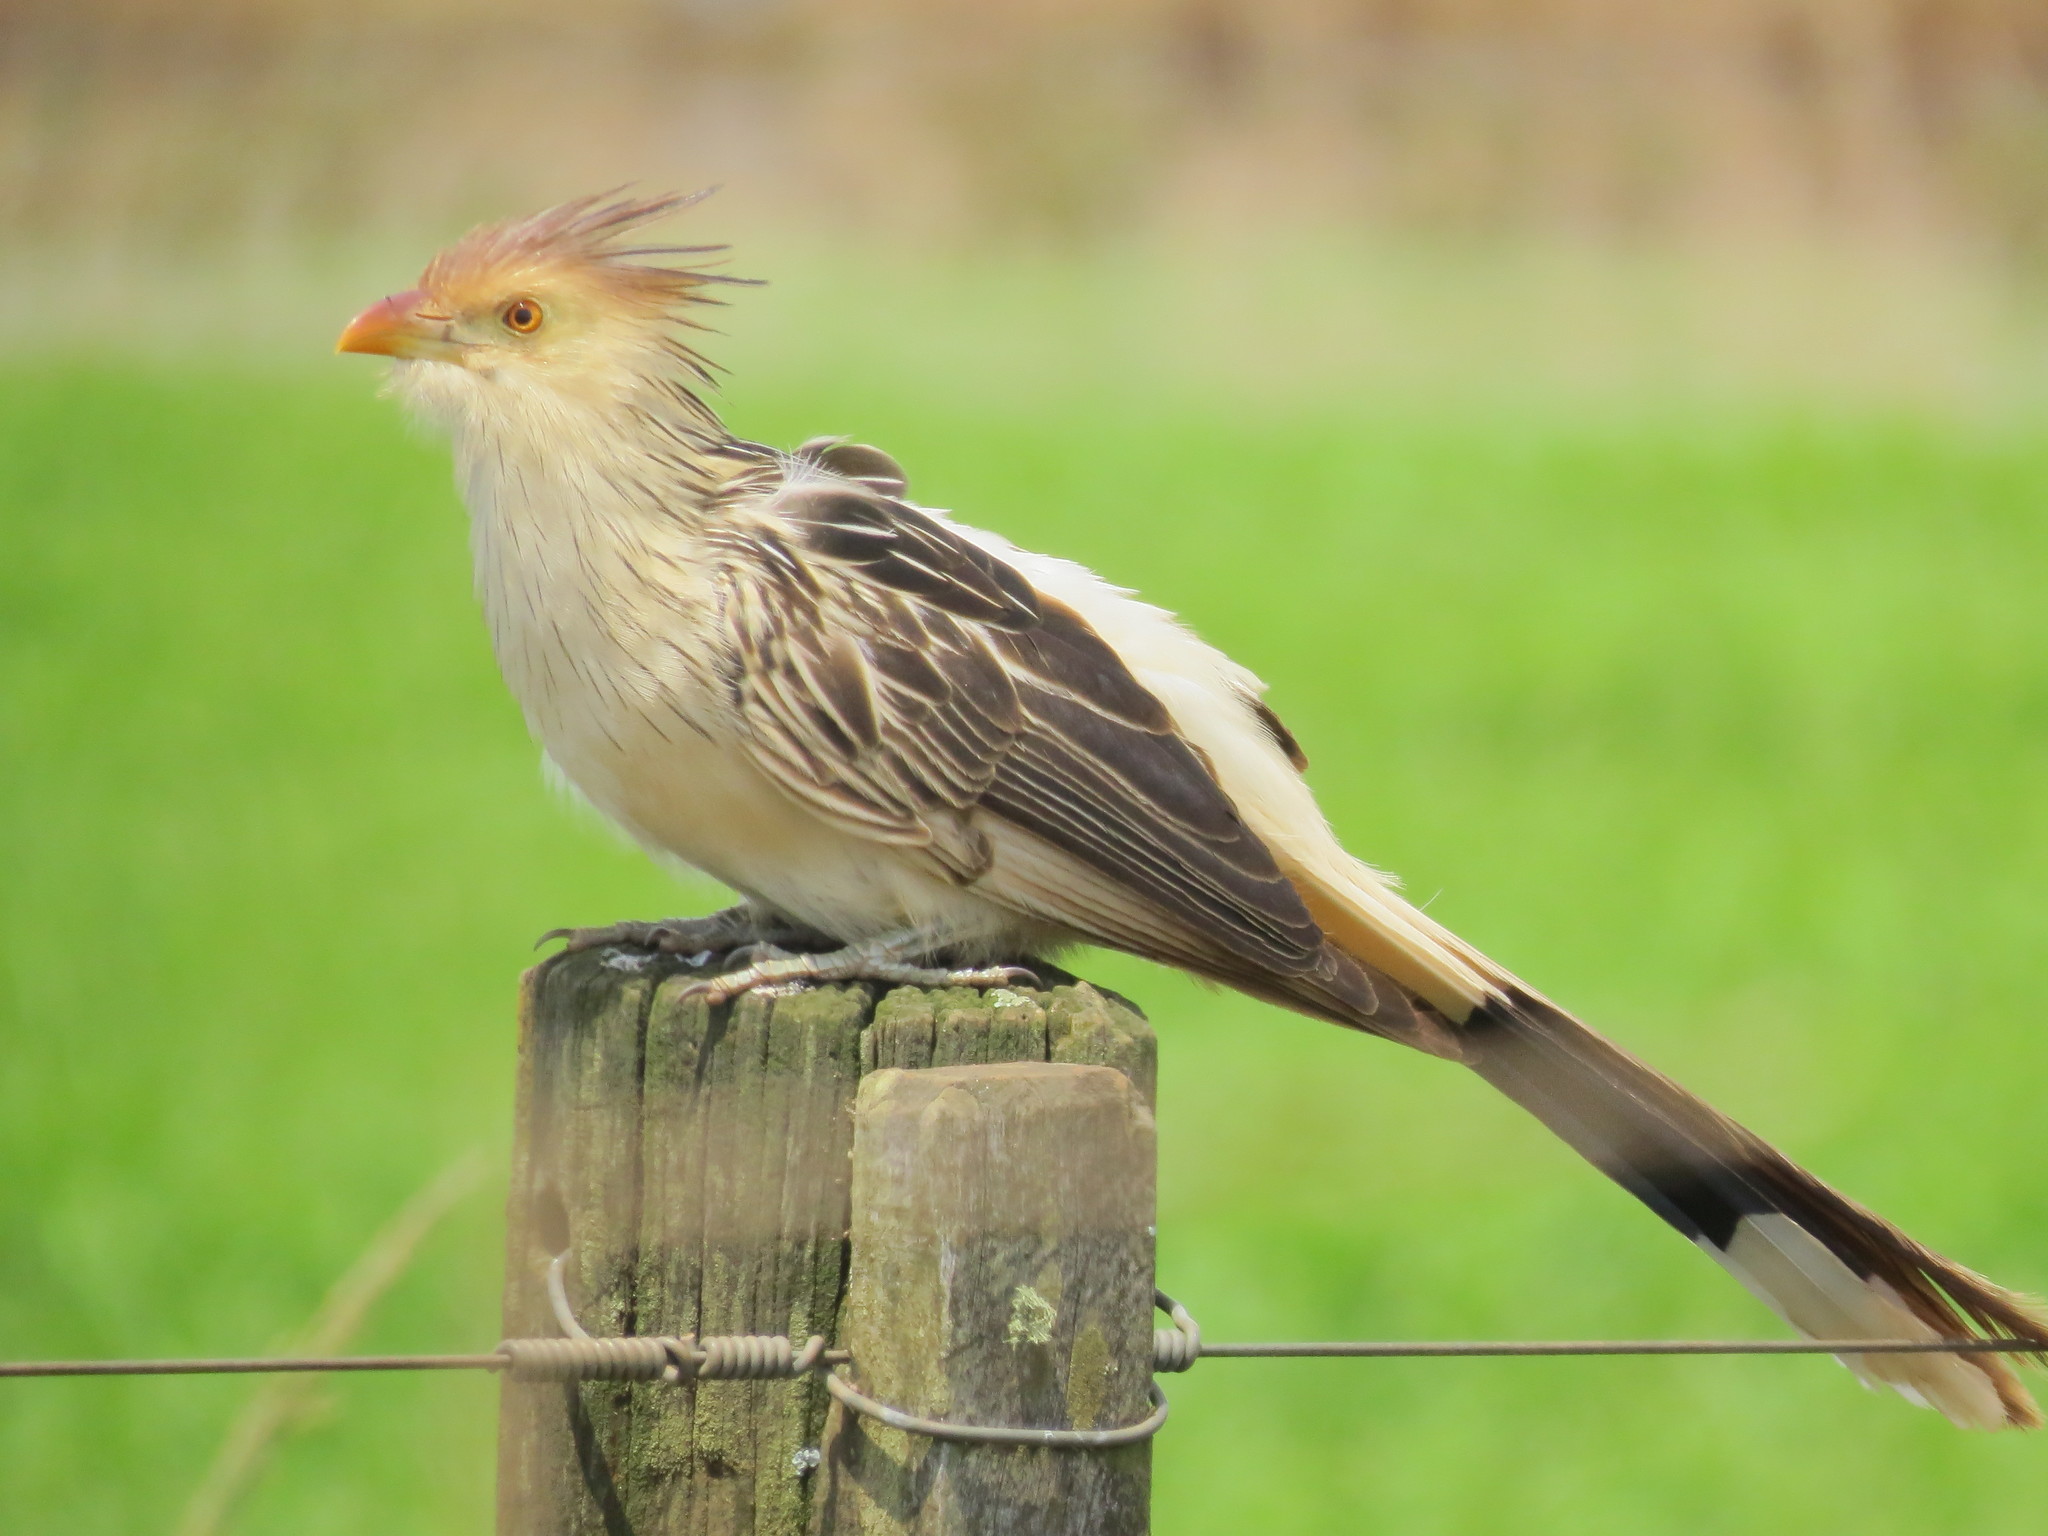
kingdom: Animalia
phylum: Chordata
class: Aves
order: Cuculiformes
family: Cuculidae
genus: Guira
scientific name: Guira guira
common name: Guira cuckoo
